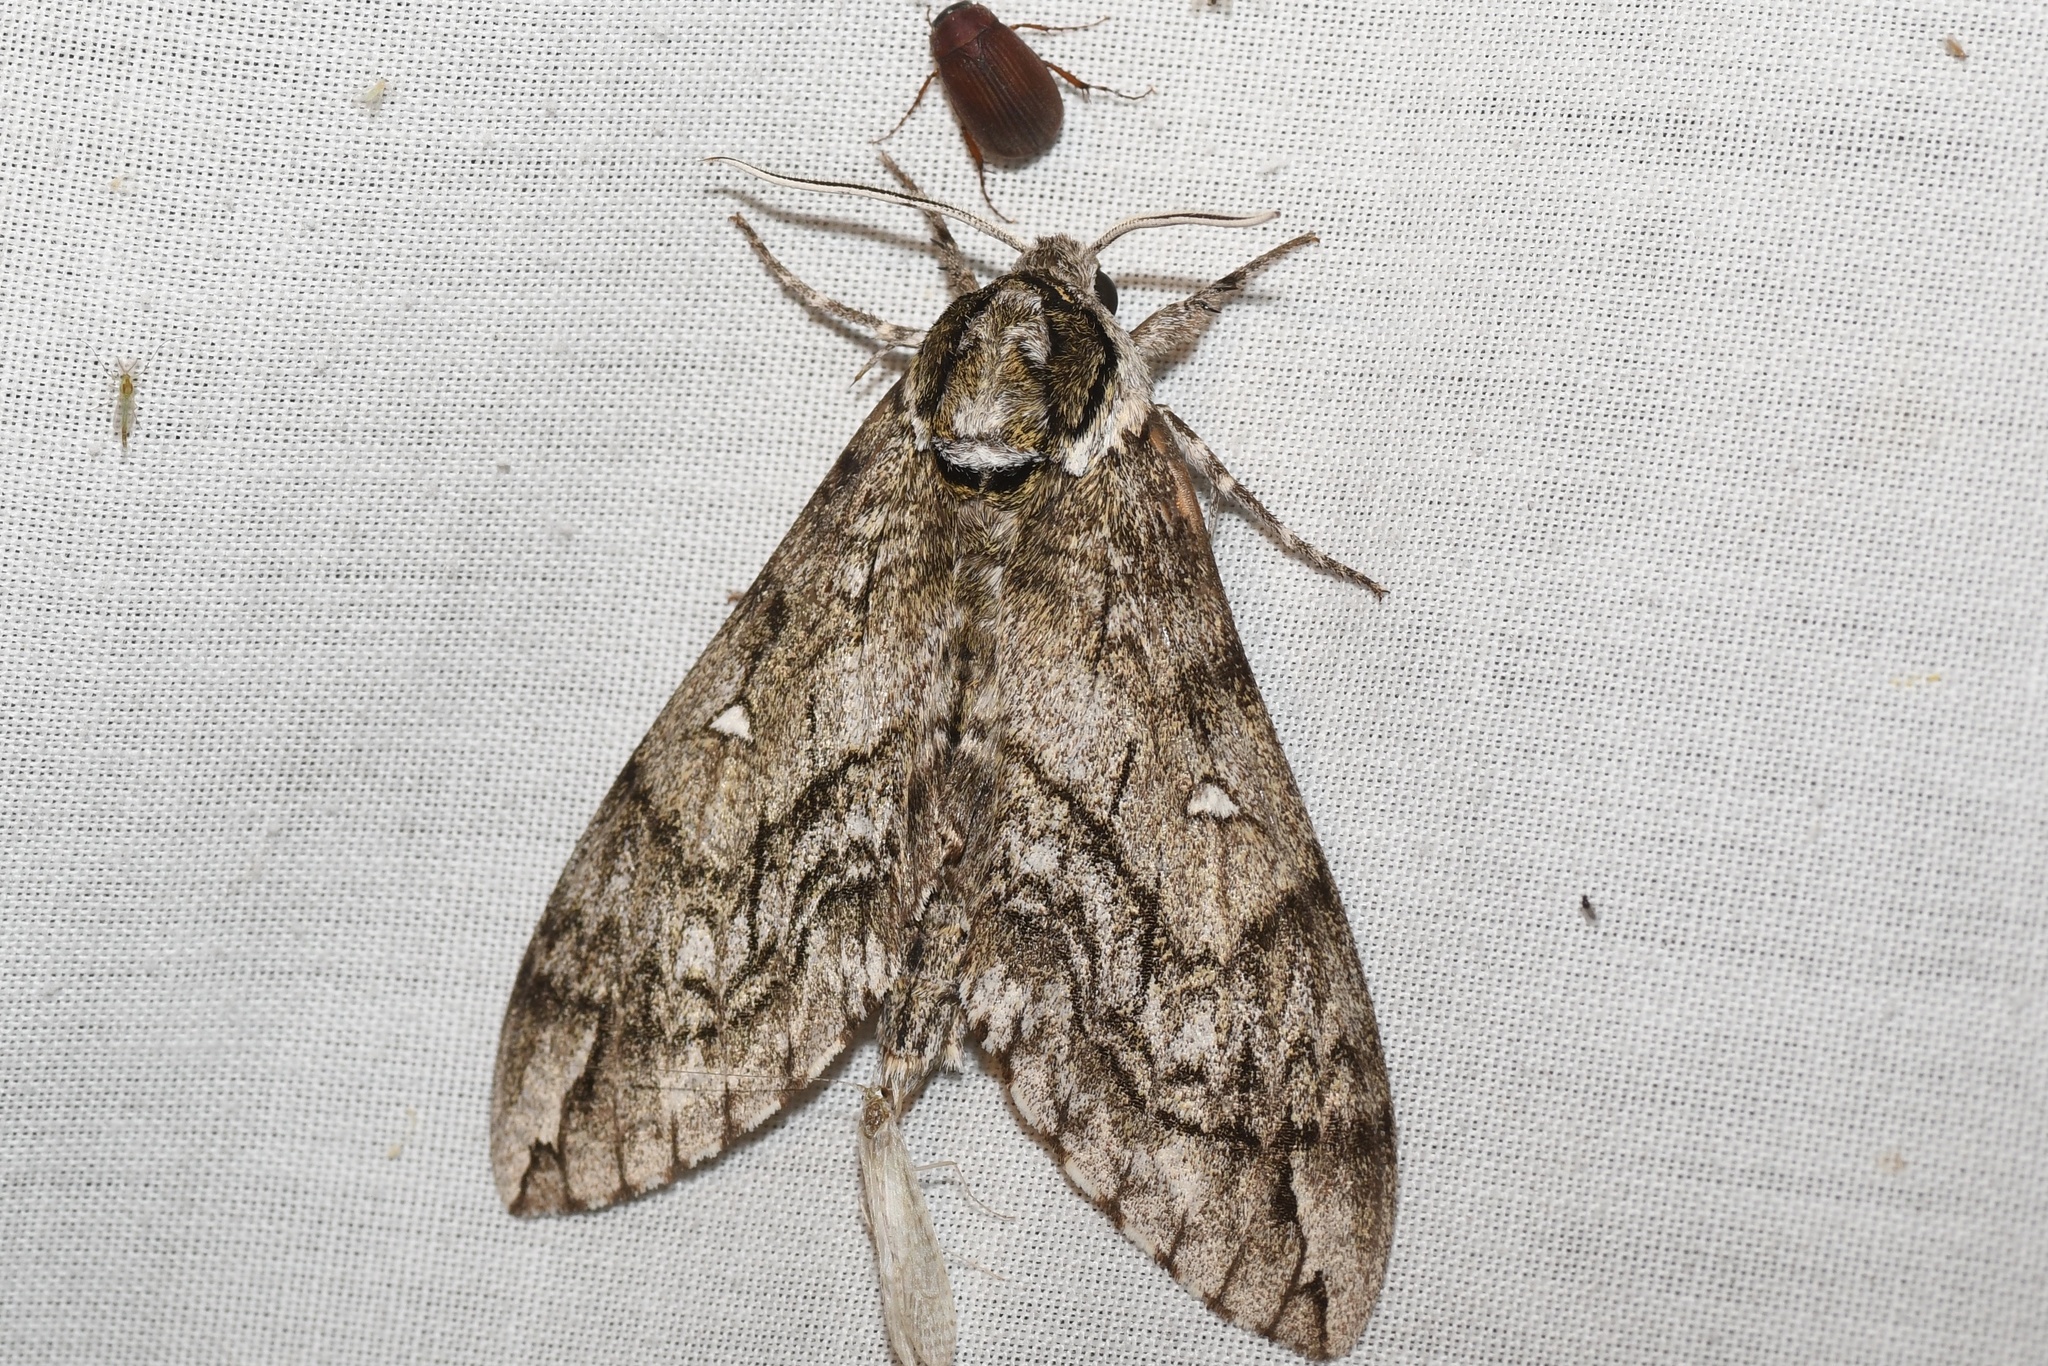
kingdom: Animalia
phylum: Arthropoda
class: Insecta
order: Lepidoptera
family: Sphingidae
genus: Ceratomia
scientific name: Ceratomia undulosa
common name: Waved sphinx
